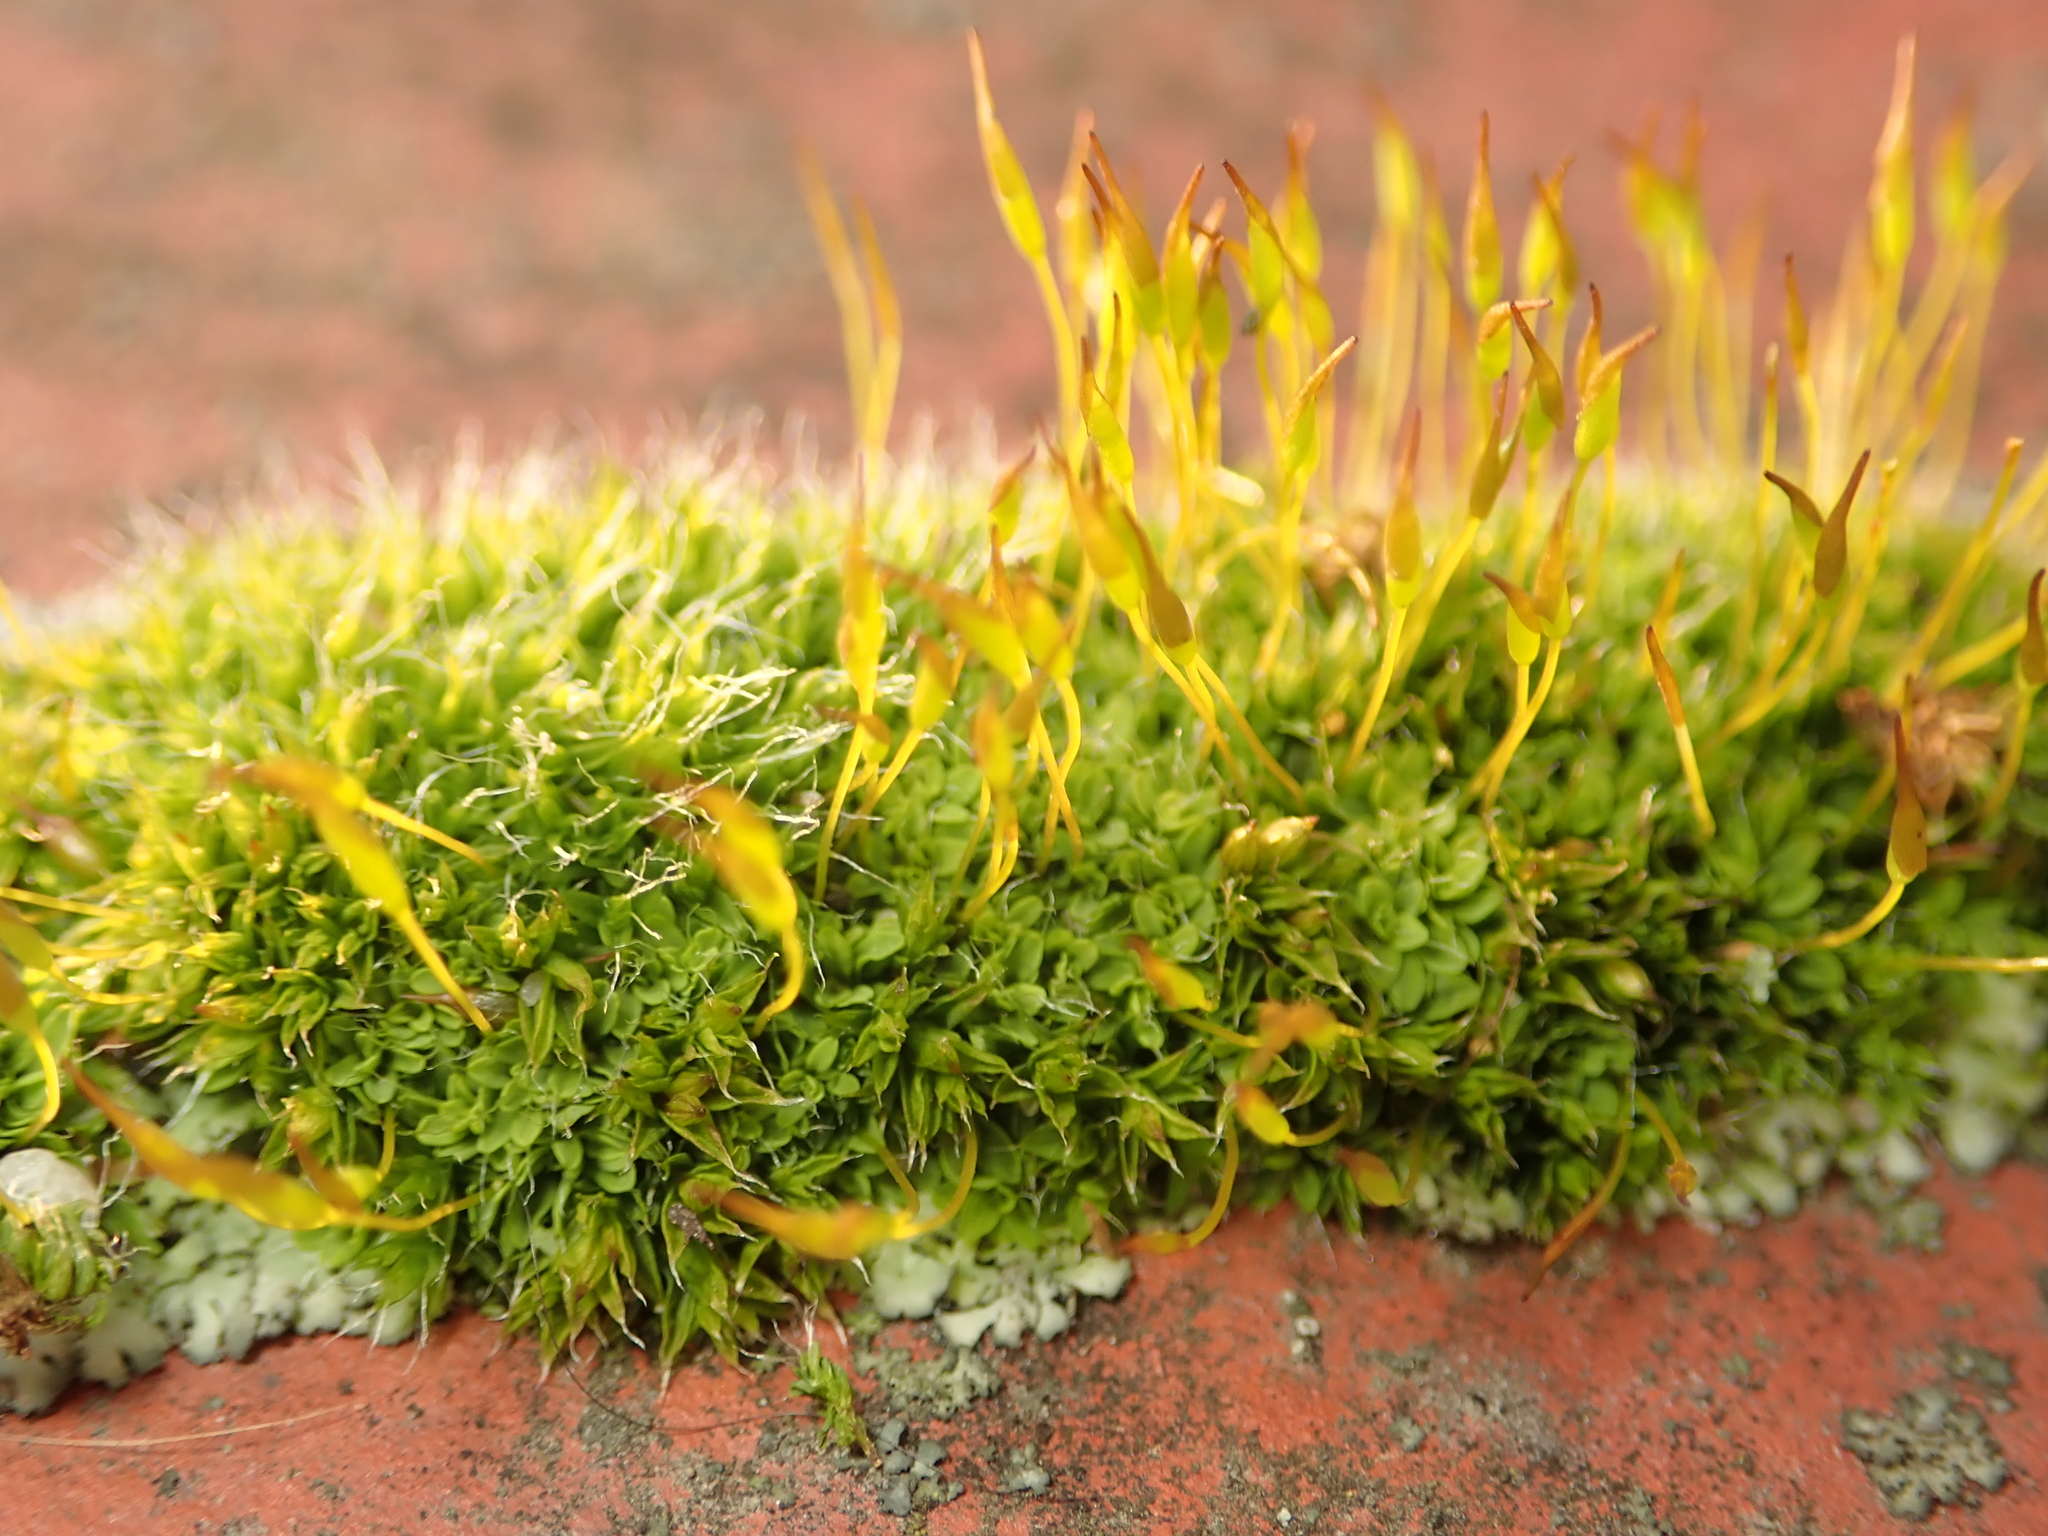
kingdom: Plantae
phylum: Bryophyta
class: Bryopsida
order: Pottiales
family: Pottiaceae
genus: Tortula
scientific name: Tortula muralis
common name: Wall screw-moss
